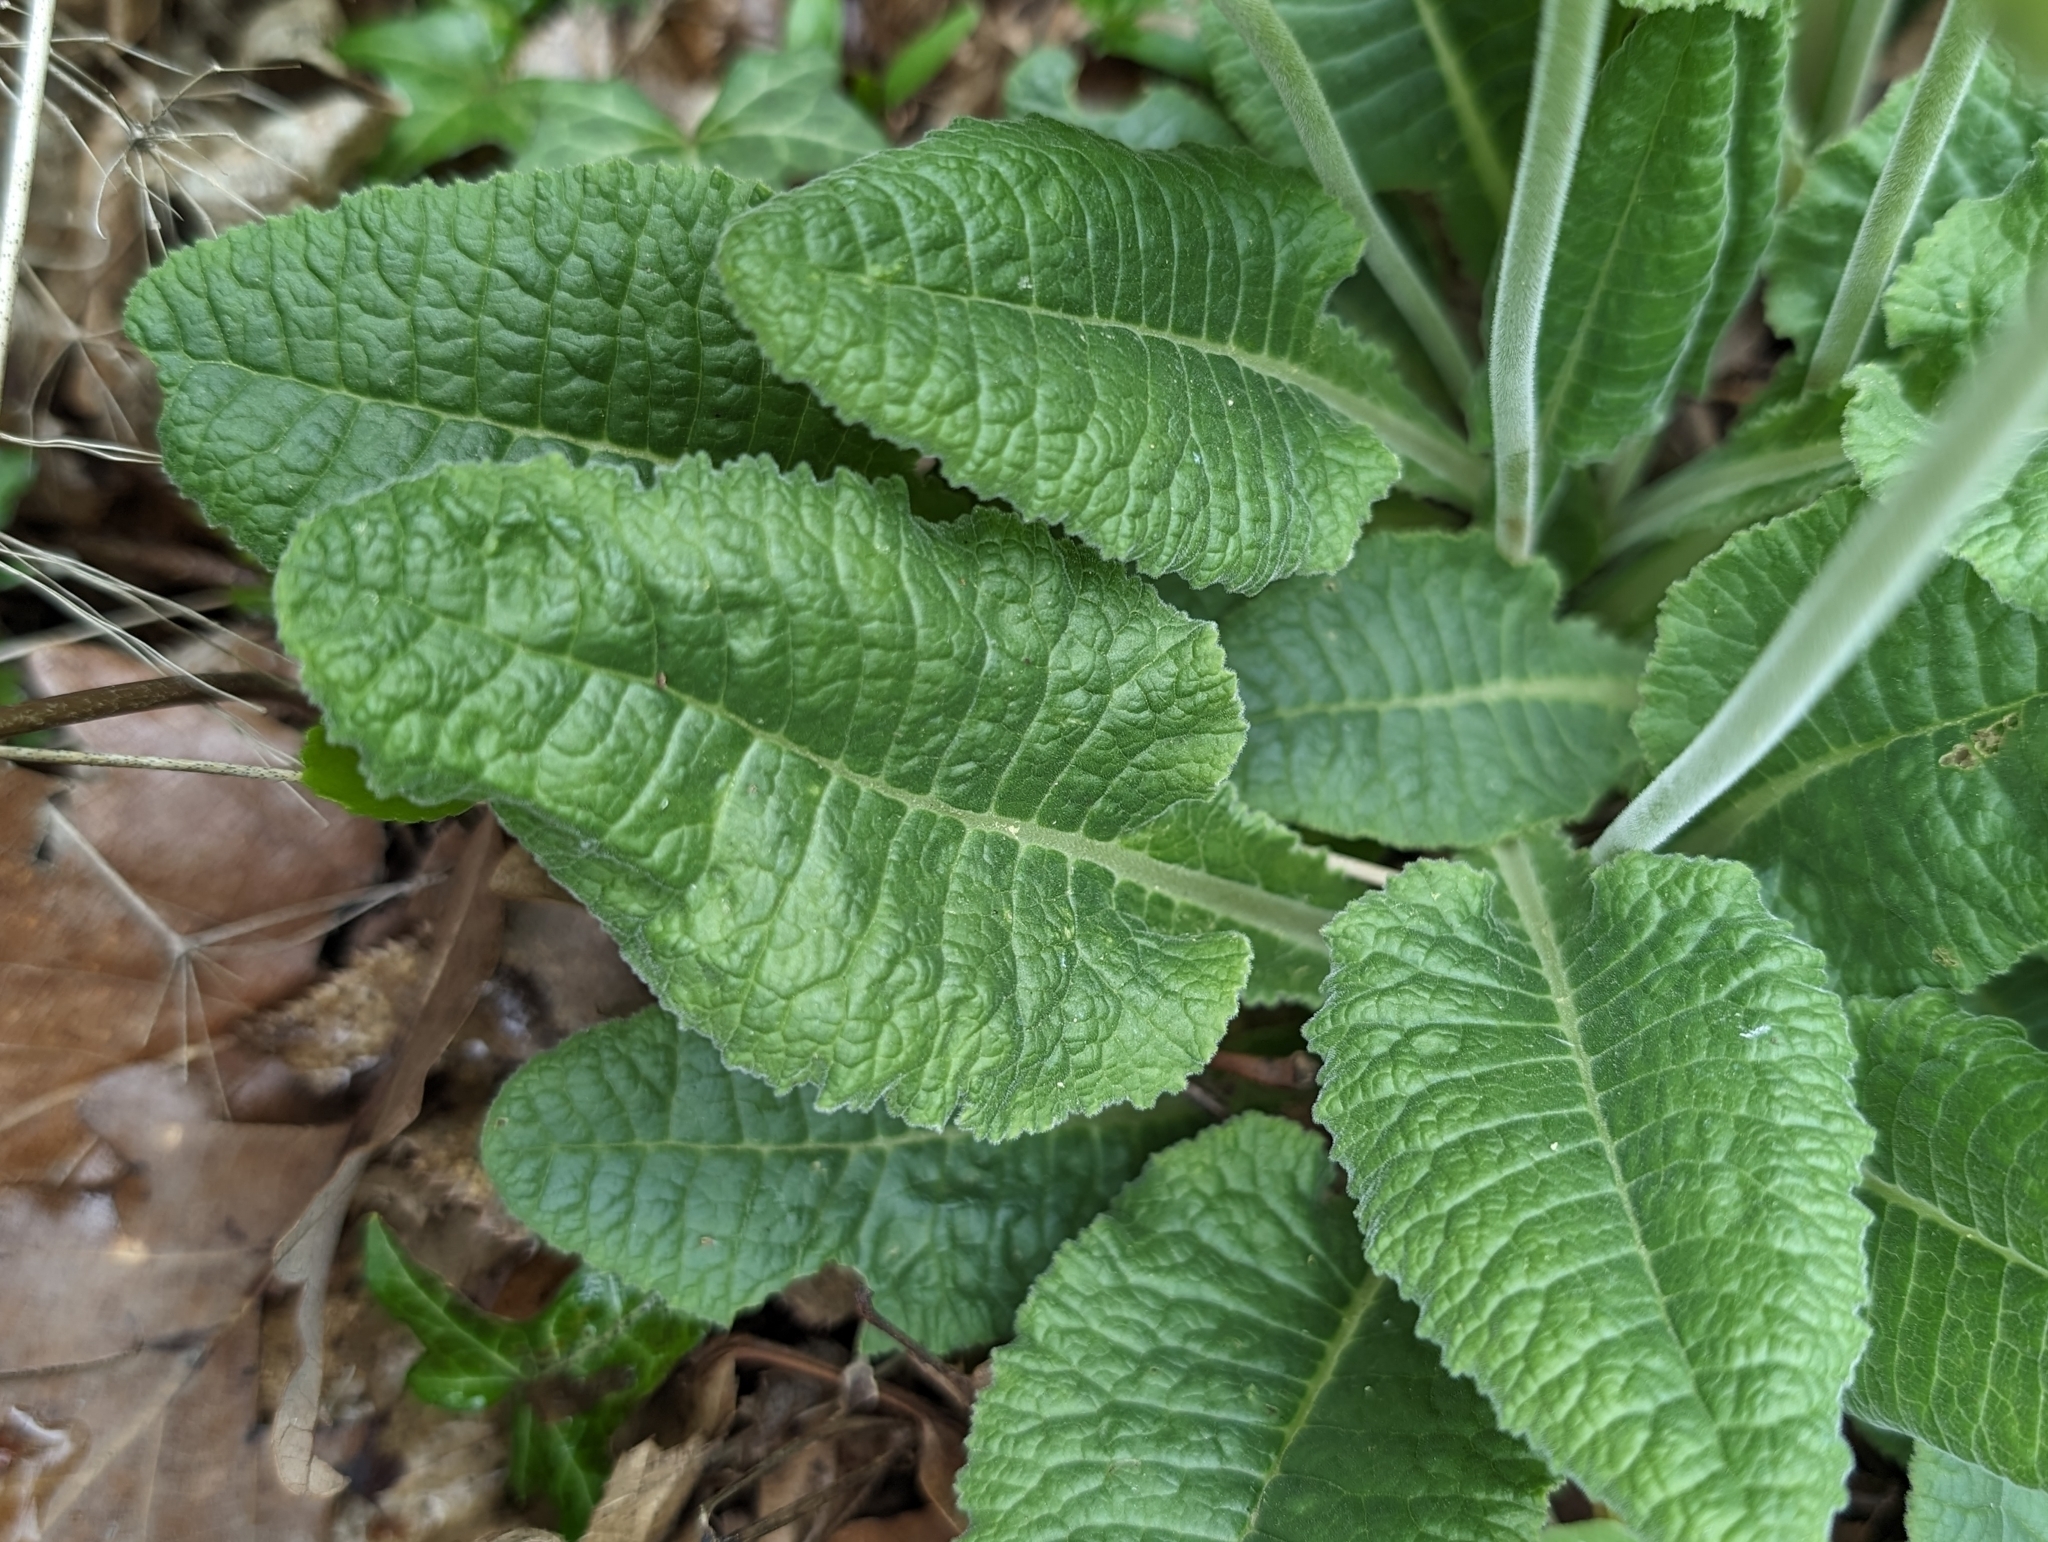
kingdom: Plantae
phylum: Tracheophyta
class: Magnoliopsida
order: Ericales
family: Primulaceae
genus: Primula
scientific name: Primula veris
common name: Cowslip
